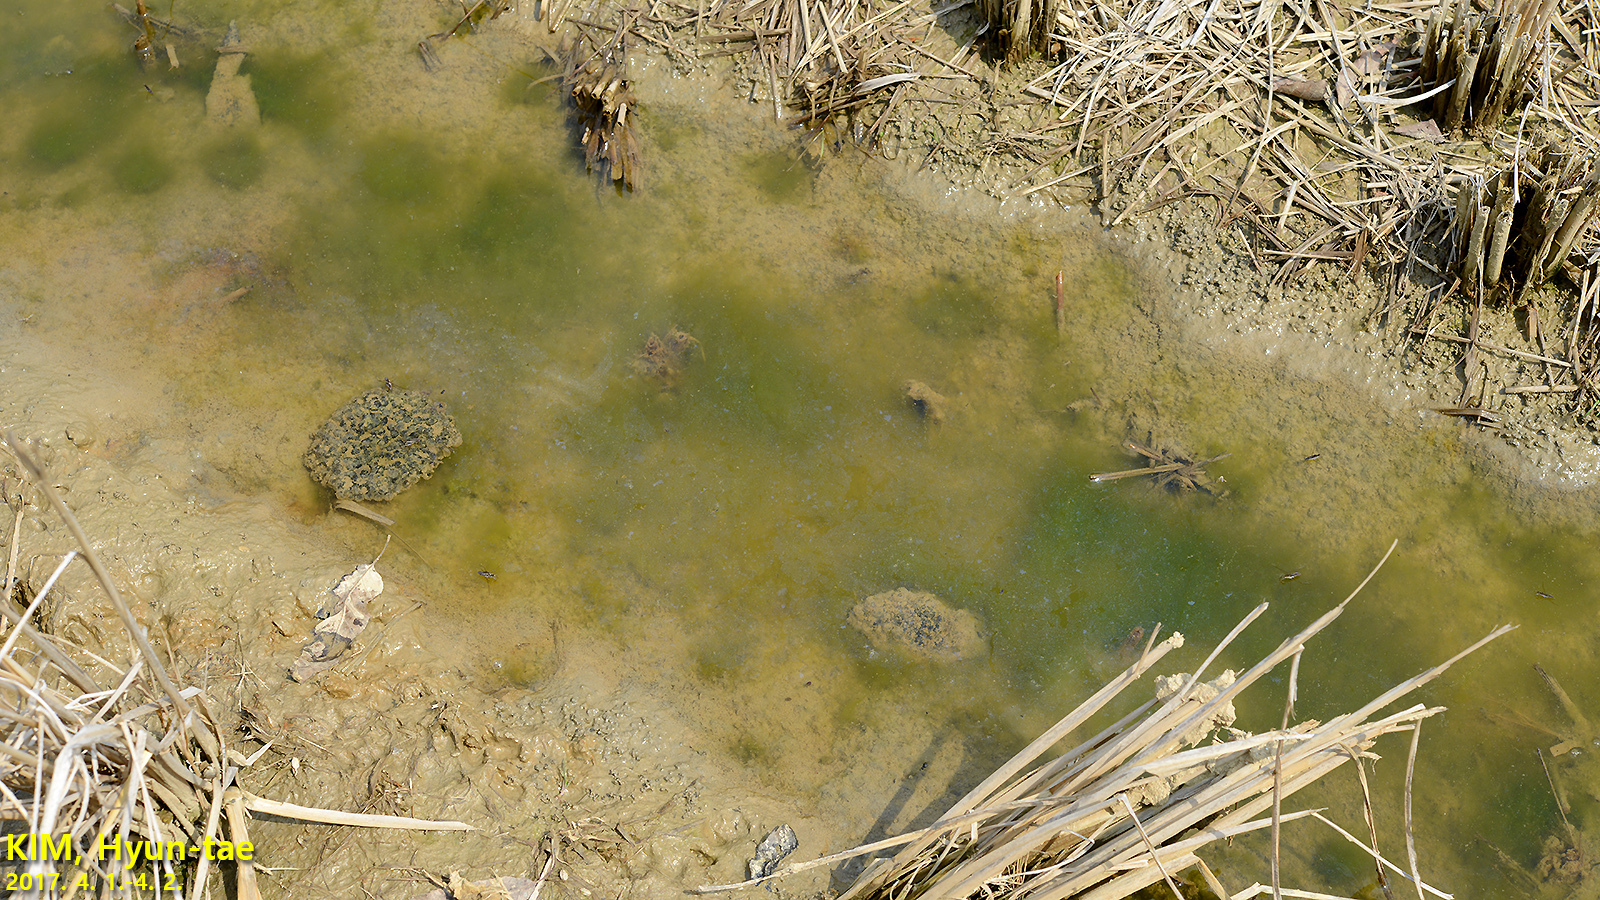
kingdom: Animalia
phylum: Chordata
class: Amphibia
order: Anura
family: Ranidae
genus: Rana
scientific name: Rana coreana
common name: Korean brown frog
